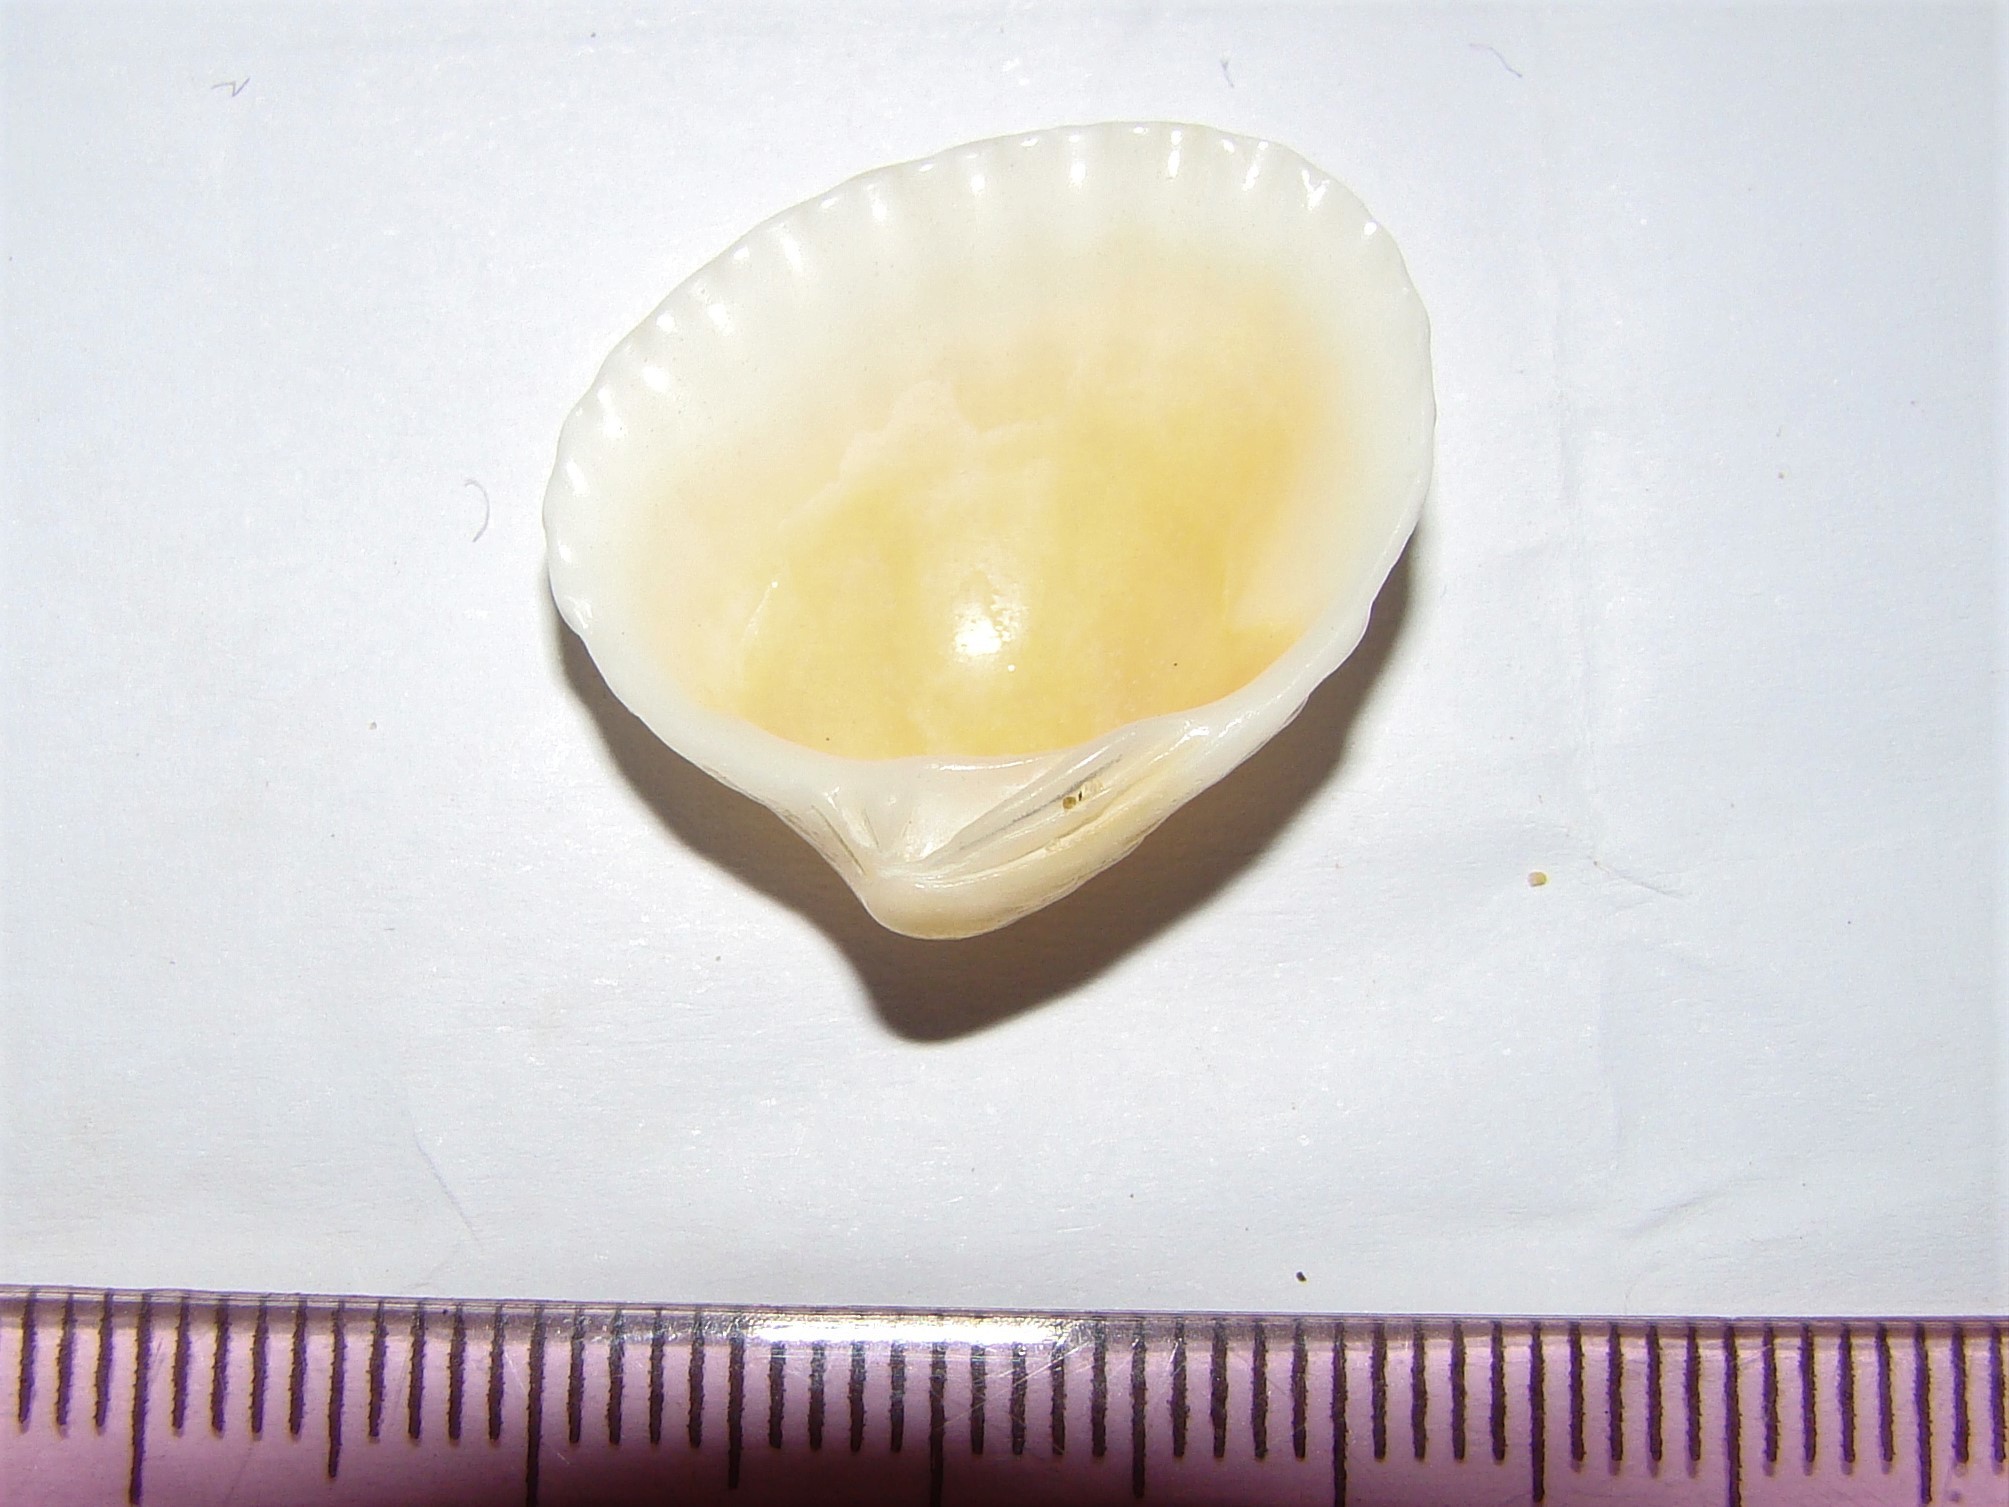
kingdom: Animalia
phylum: Mollusca
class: Bivalvia
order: Carditida
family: Carditidae
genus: Purpurocardia
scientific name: Purpurocardia purpurata
